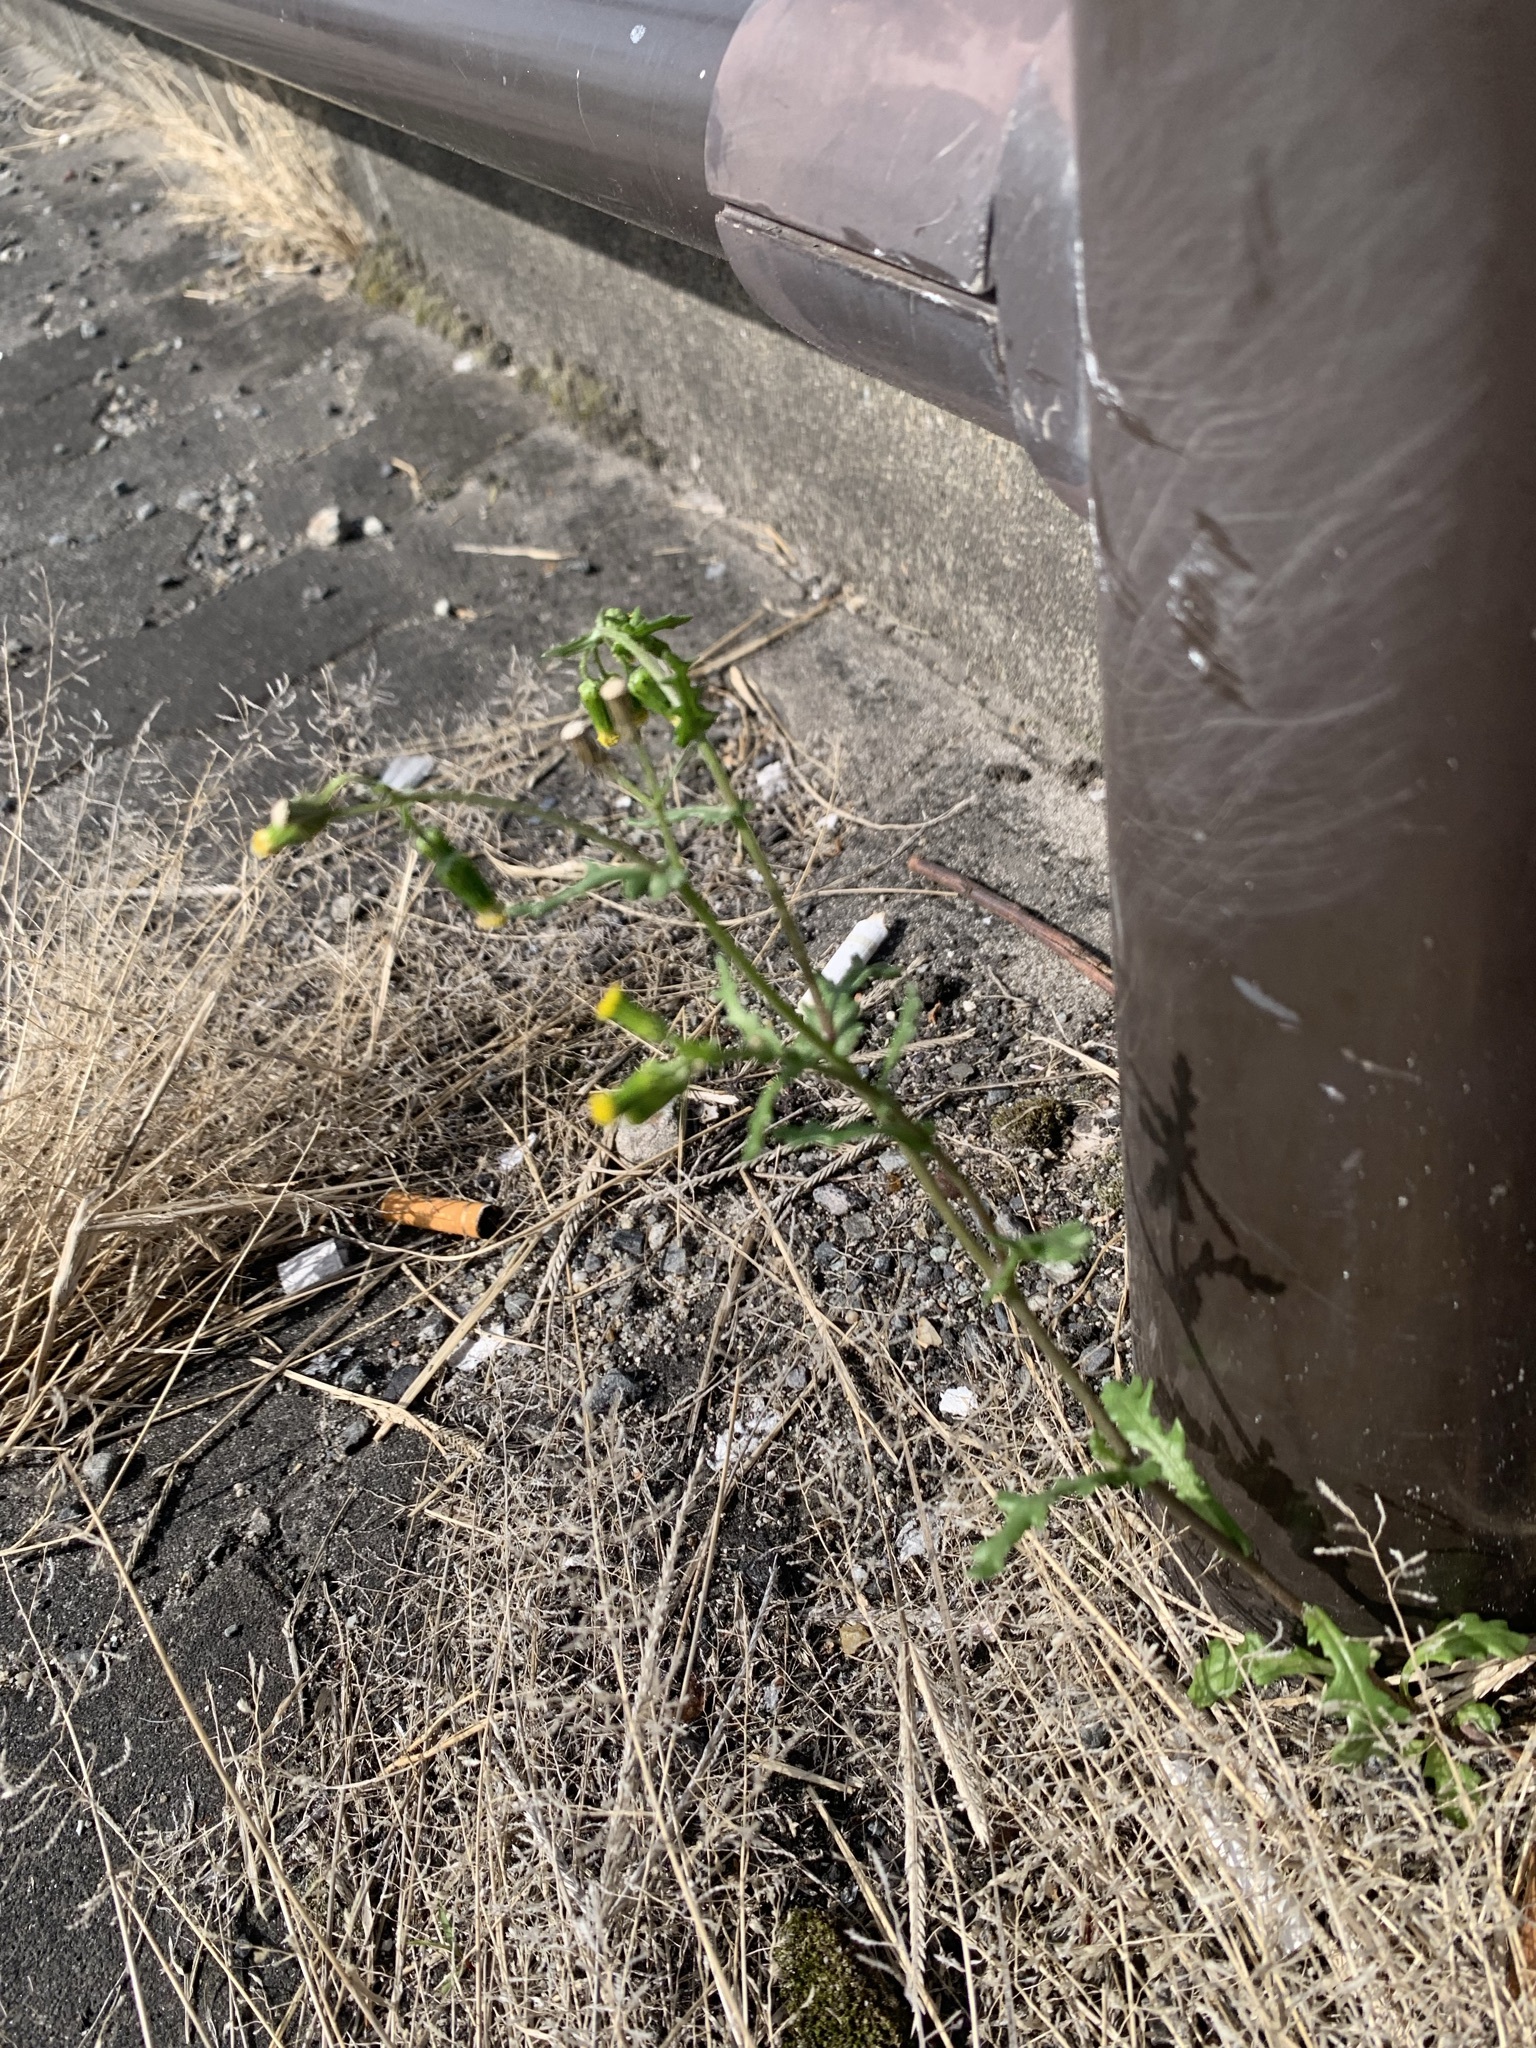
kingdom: Plantae
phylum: Tracheophyta
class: Magnoliopsida
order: Asterales
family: Asteraceae
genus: Senecio
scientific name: Senecio vulgaris
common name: Old-man-in-the-spring
